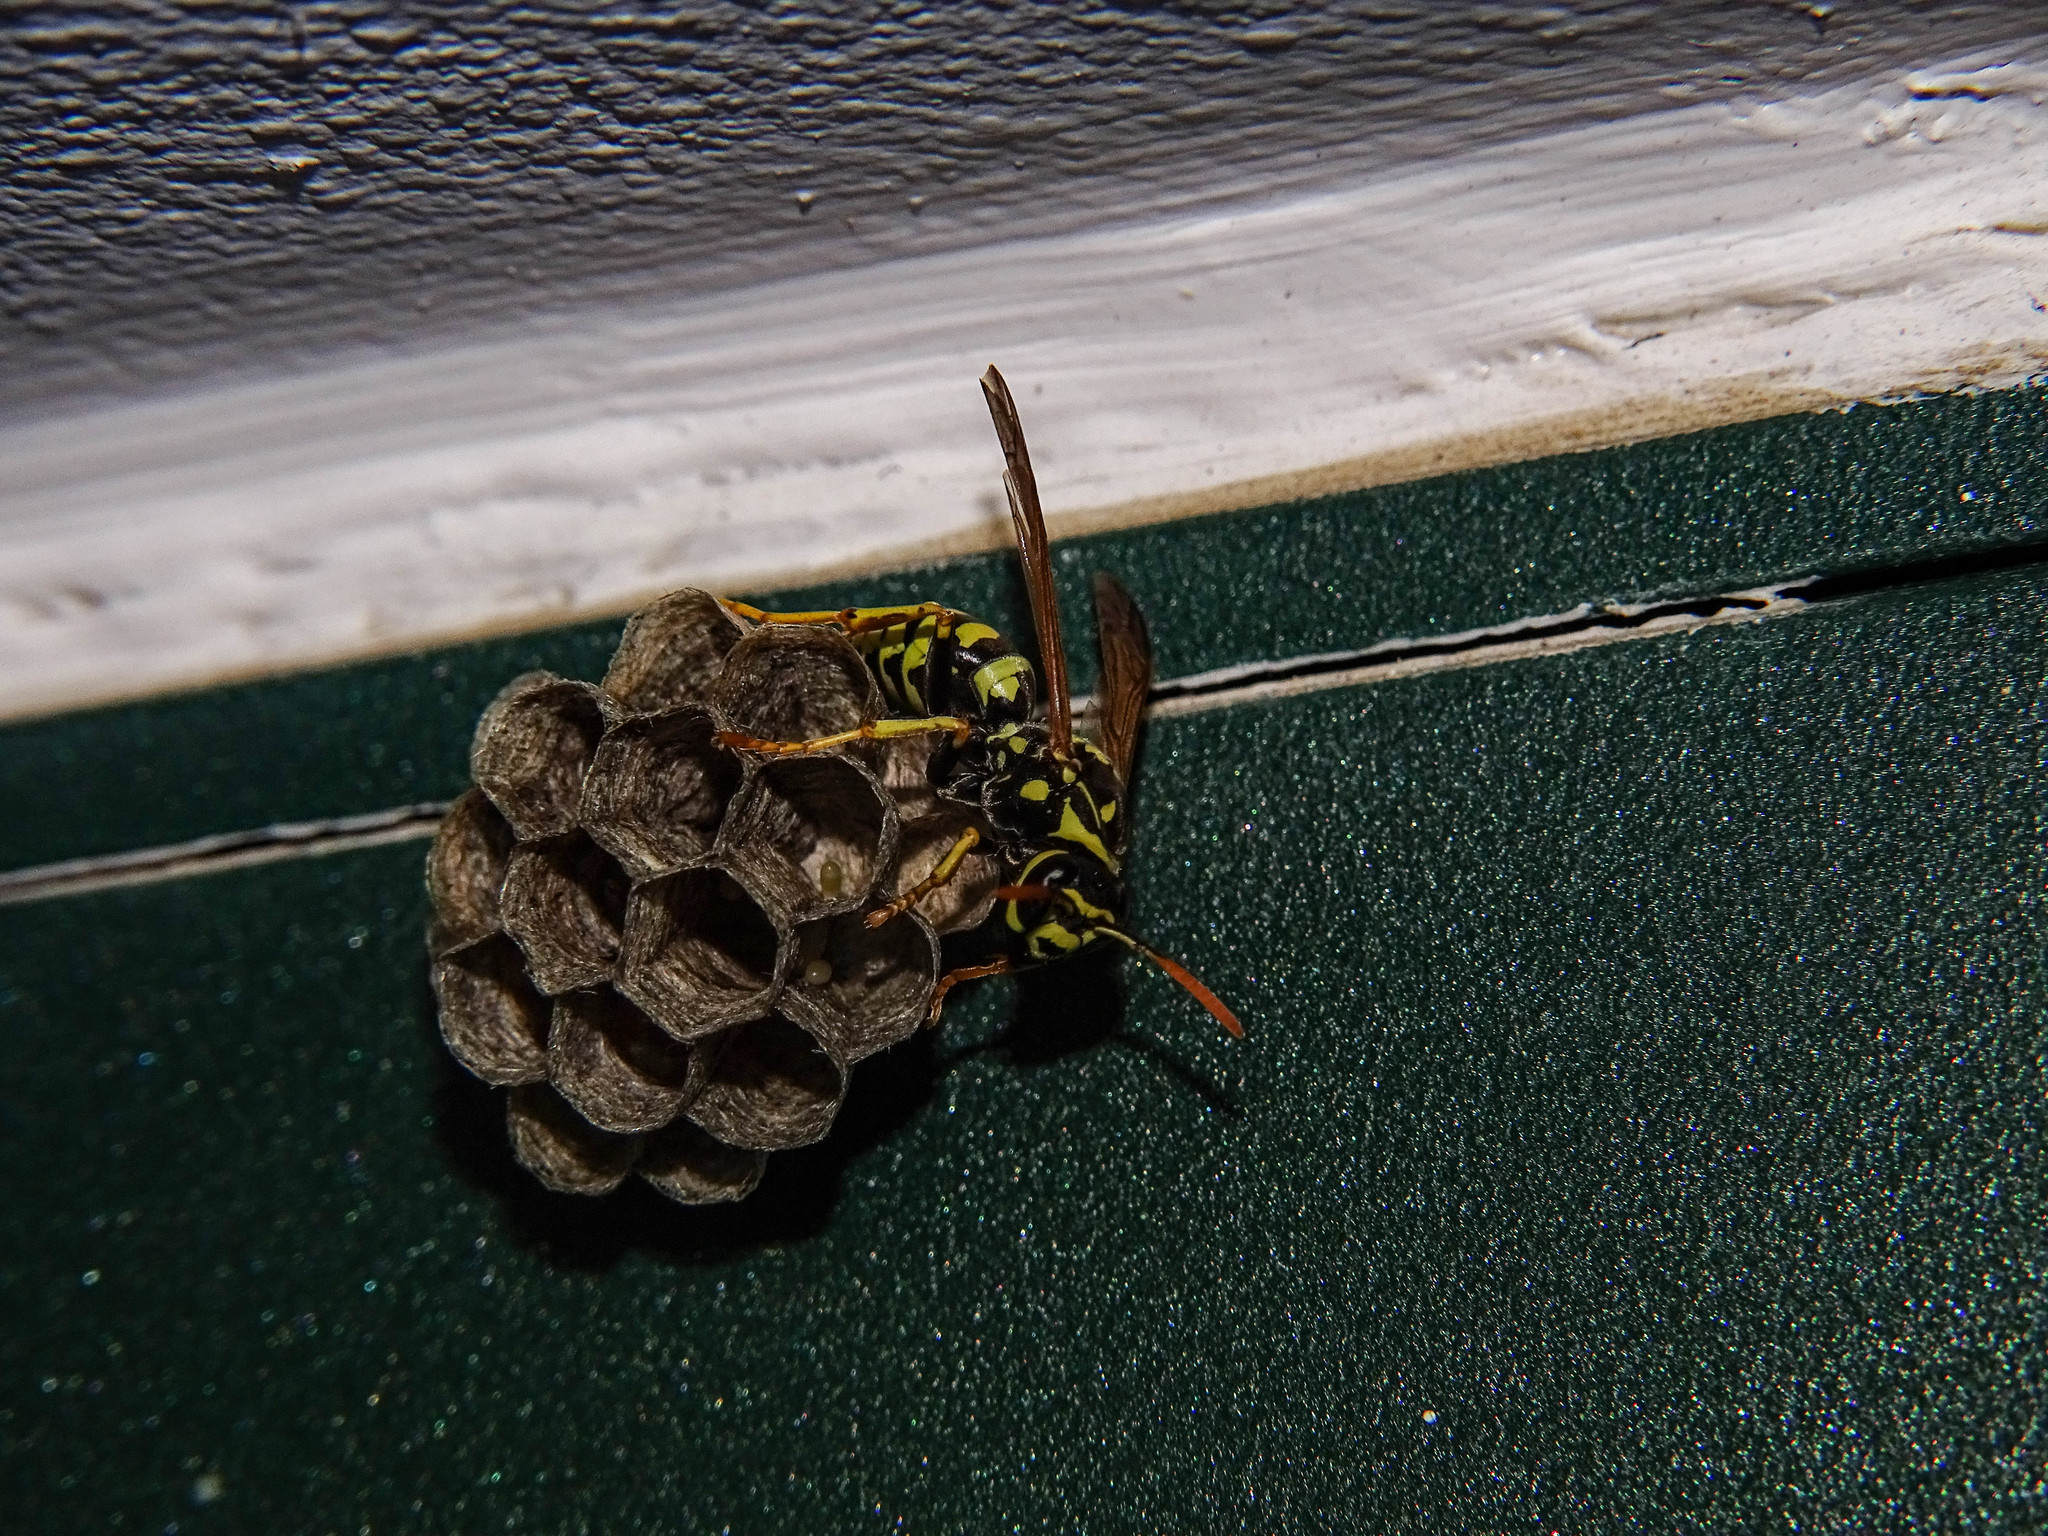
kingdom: Animalia
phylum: Arthropoda
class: Insecta
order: Hymenoptera
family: Eumenidae
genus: Polistes
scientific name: Polistes dominula
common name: Paper wasp
